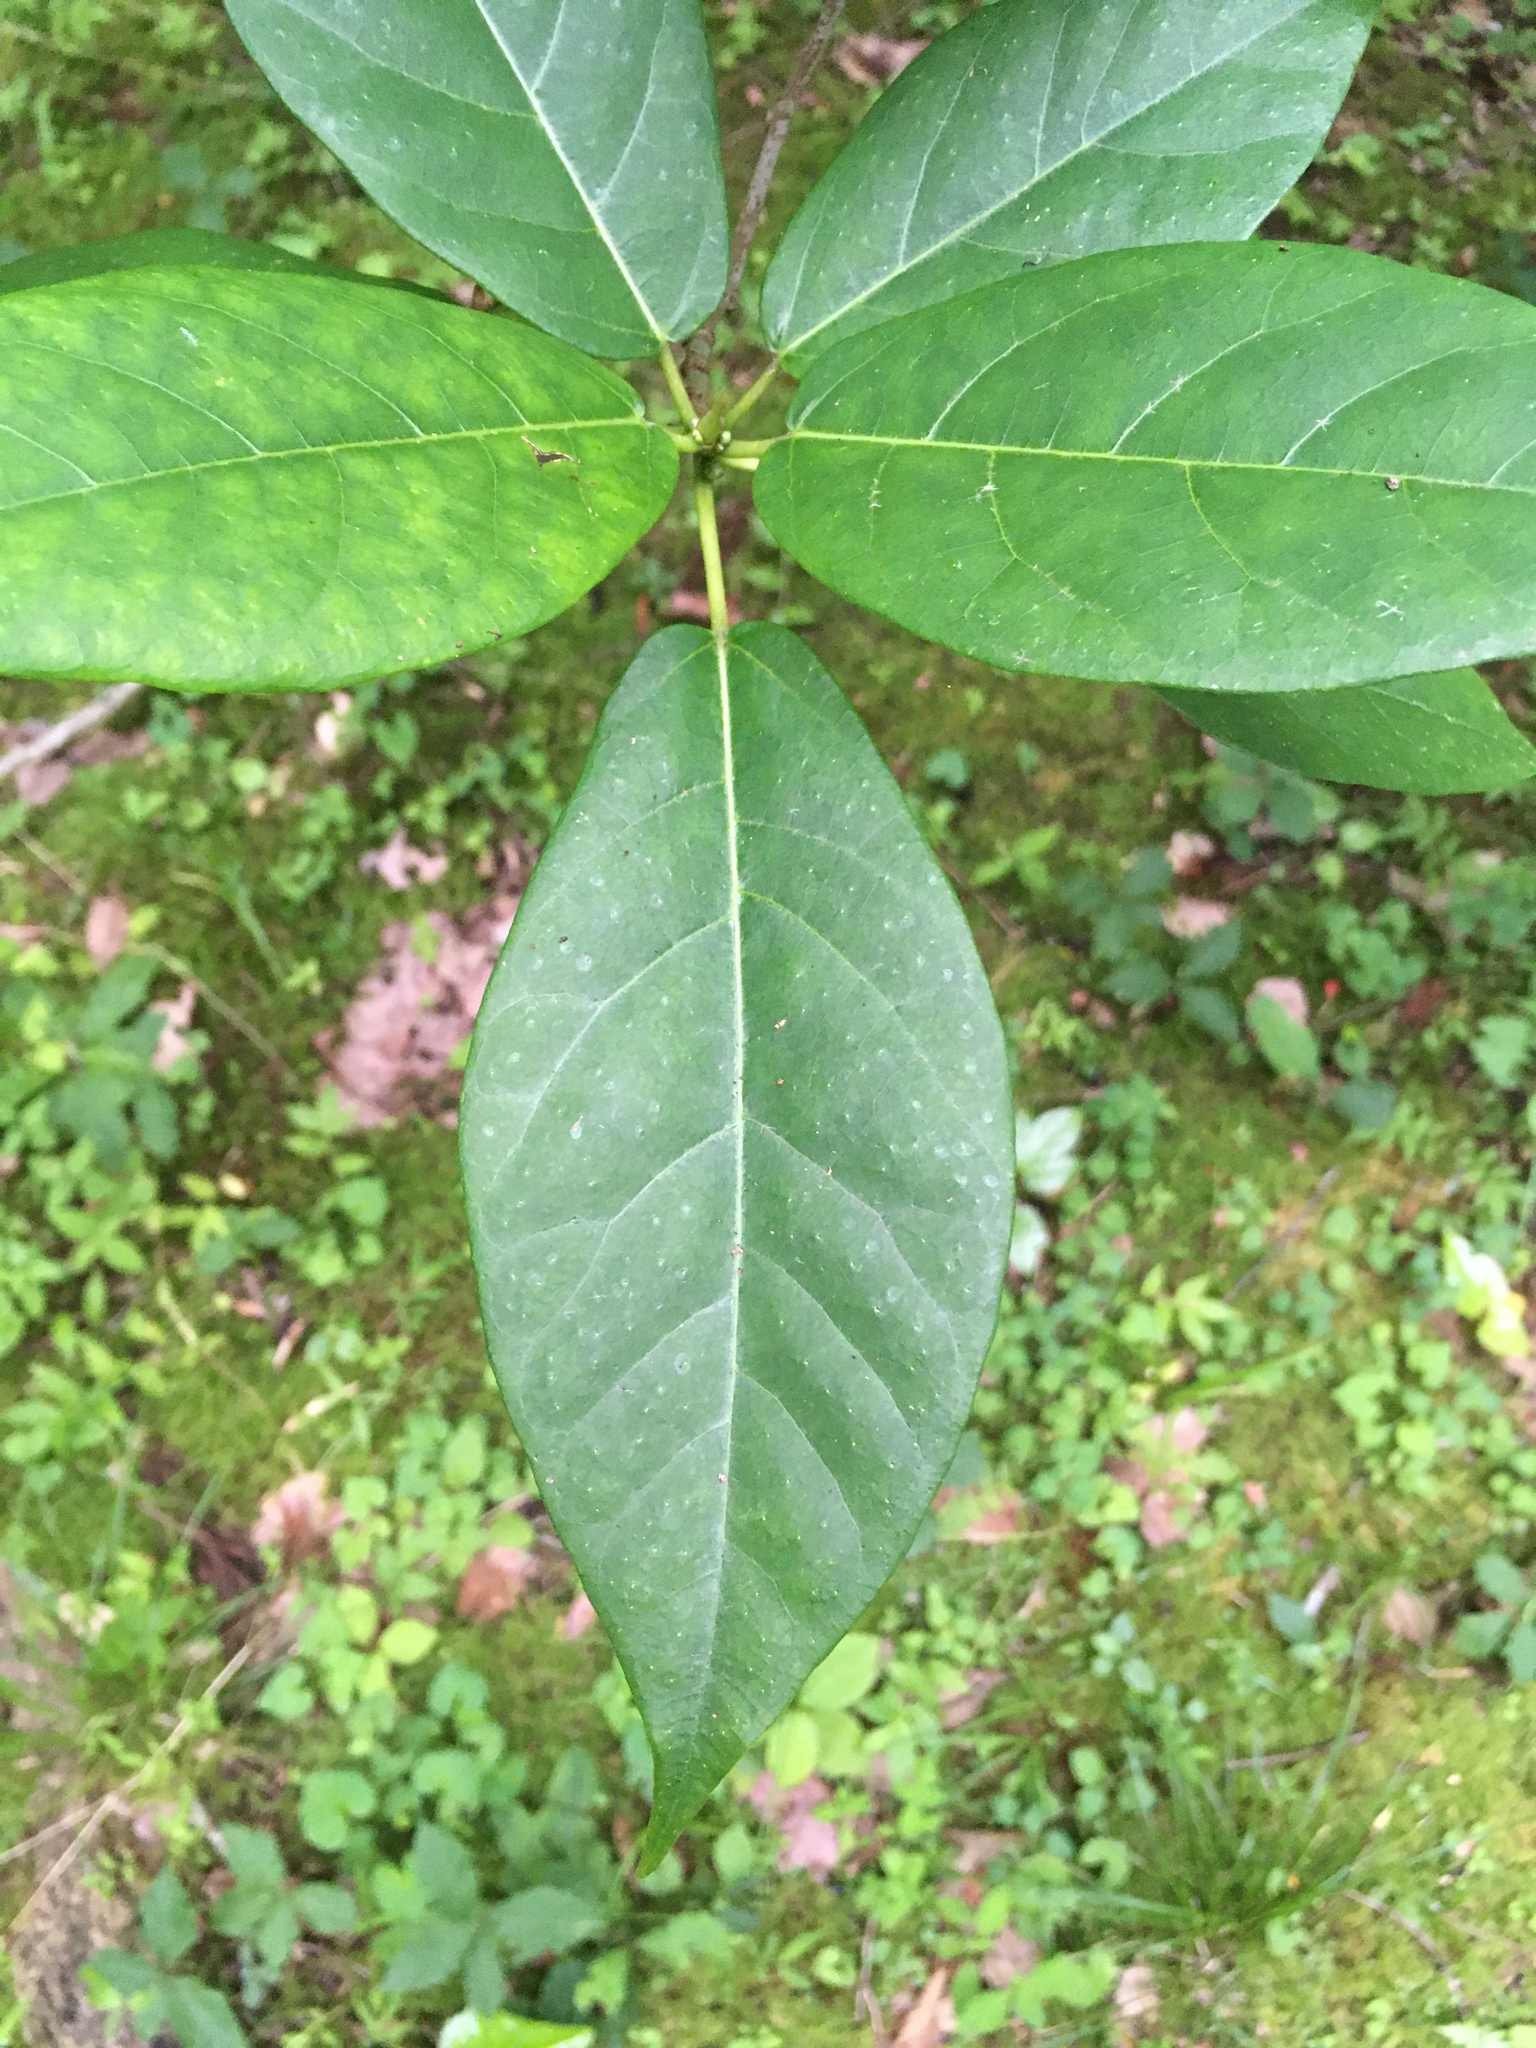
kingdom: Plantae
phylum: Tracheophyta
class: Magnoliopsida
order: Rosales
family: Moraceae
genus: Ficus
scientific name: Ficus erecta
